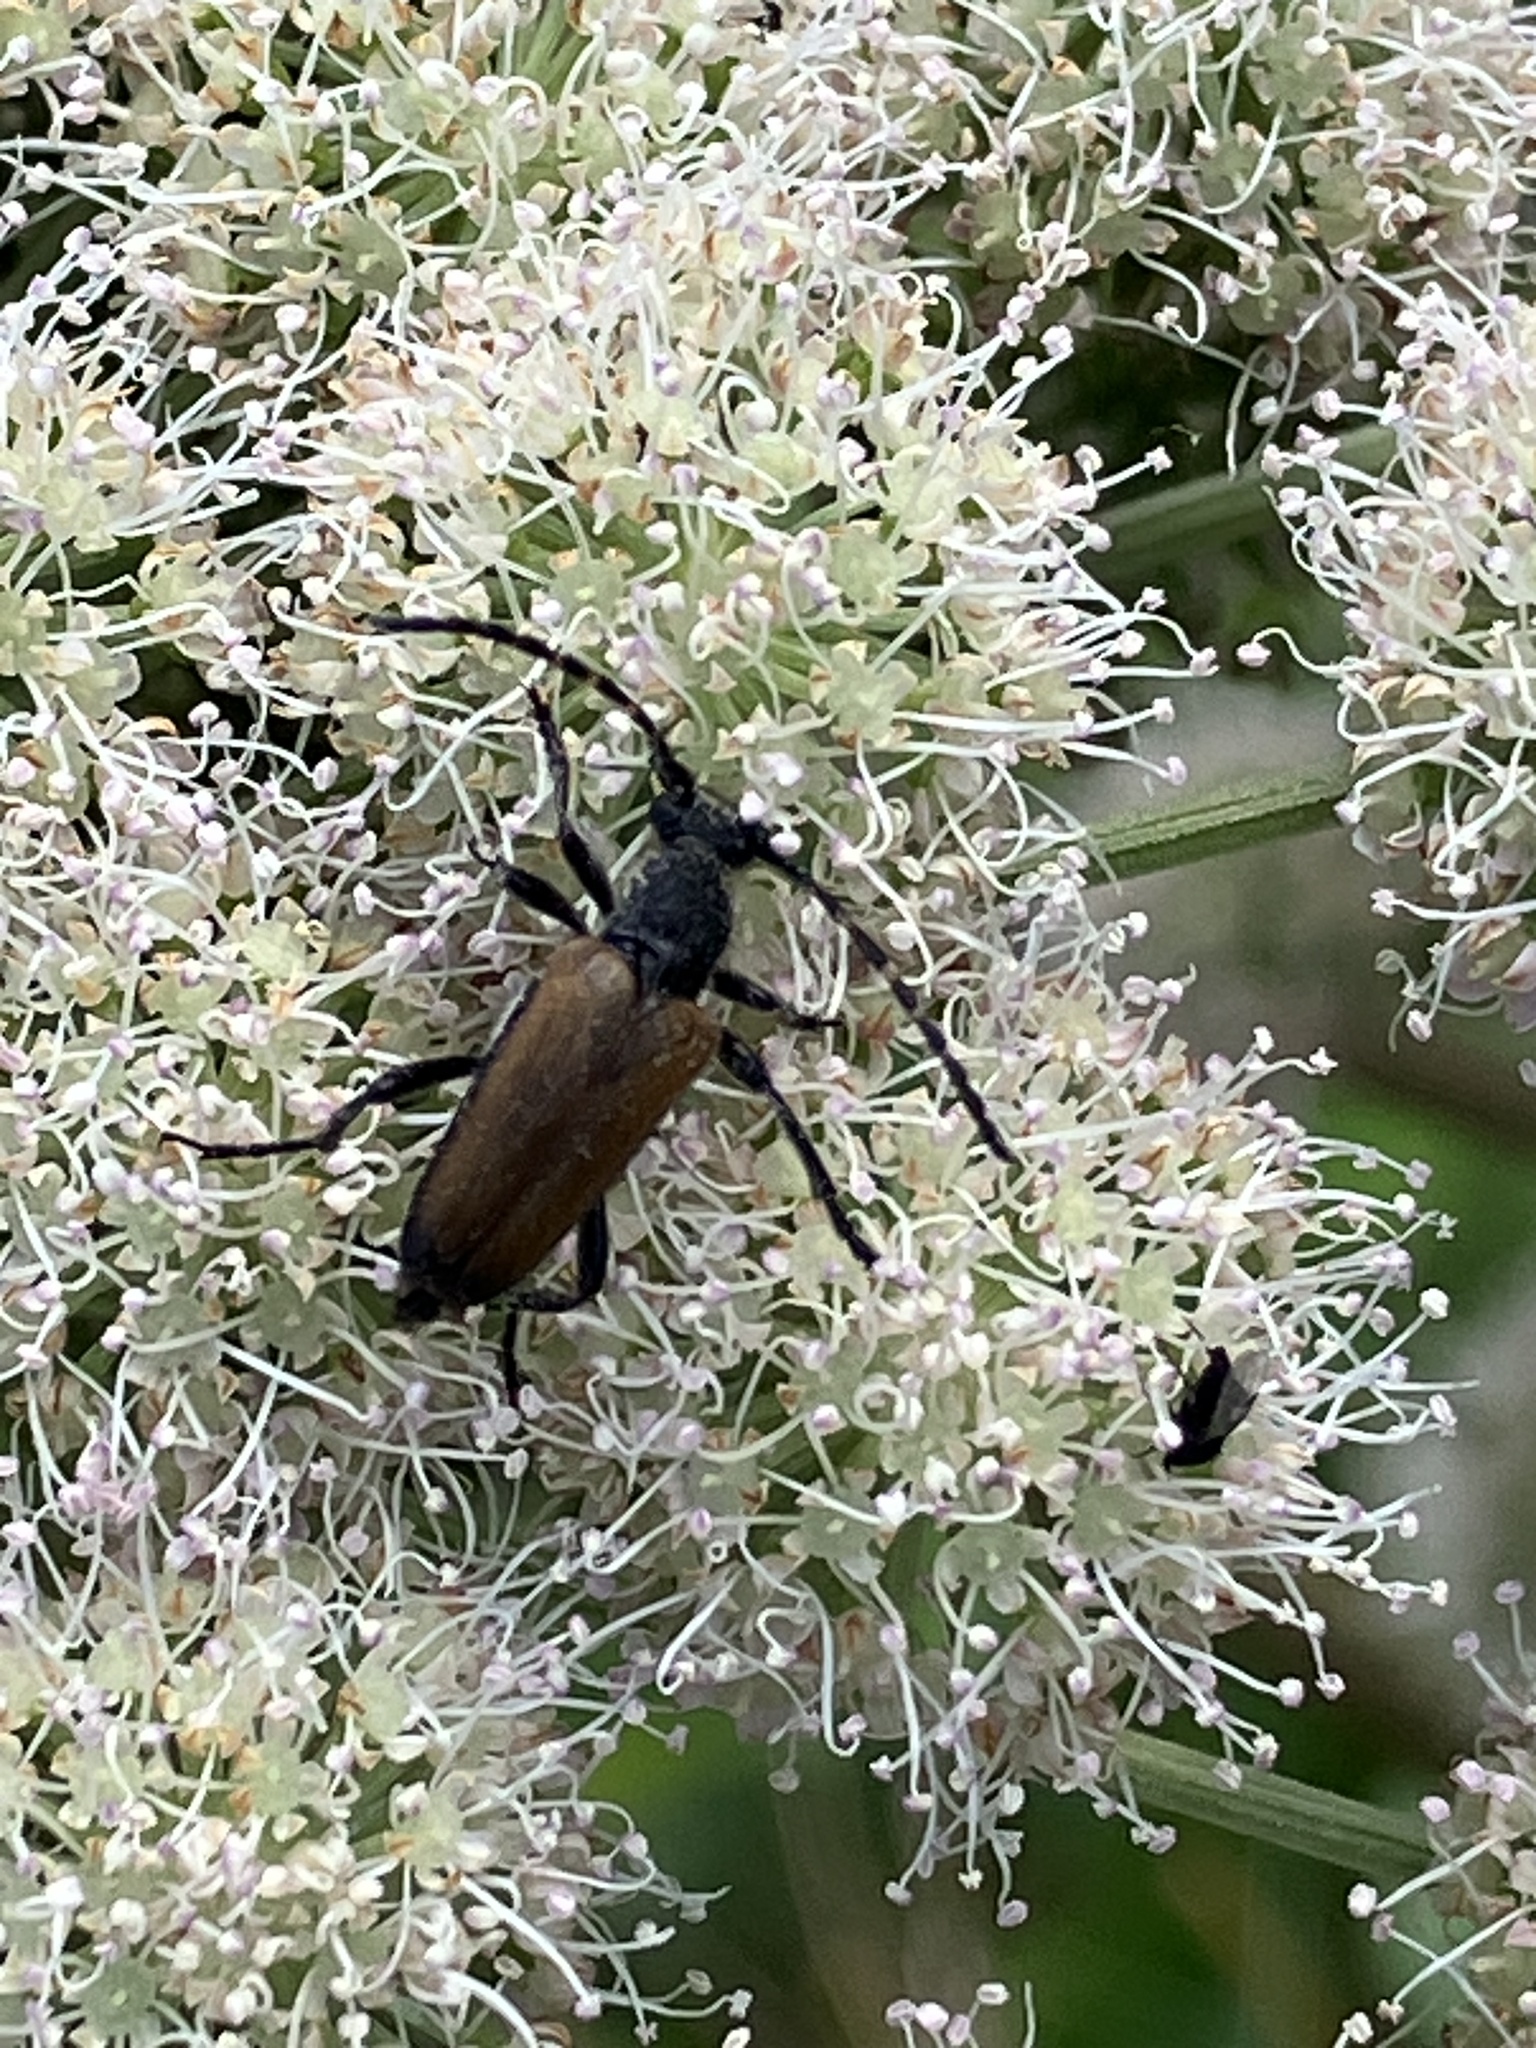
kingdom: Animalia
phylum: Arthropoda
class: Insecta
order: Coleoptera
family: Cerambycidae
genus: Paracorymbia
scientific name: Paracorymbia maculicornis
